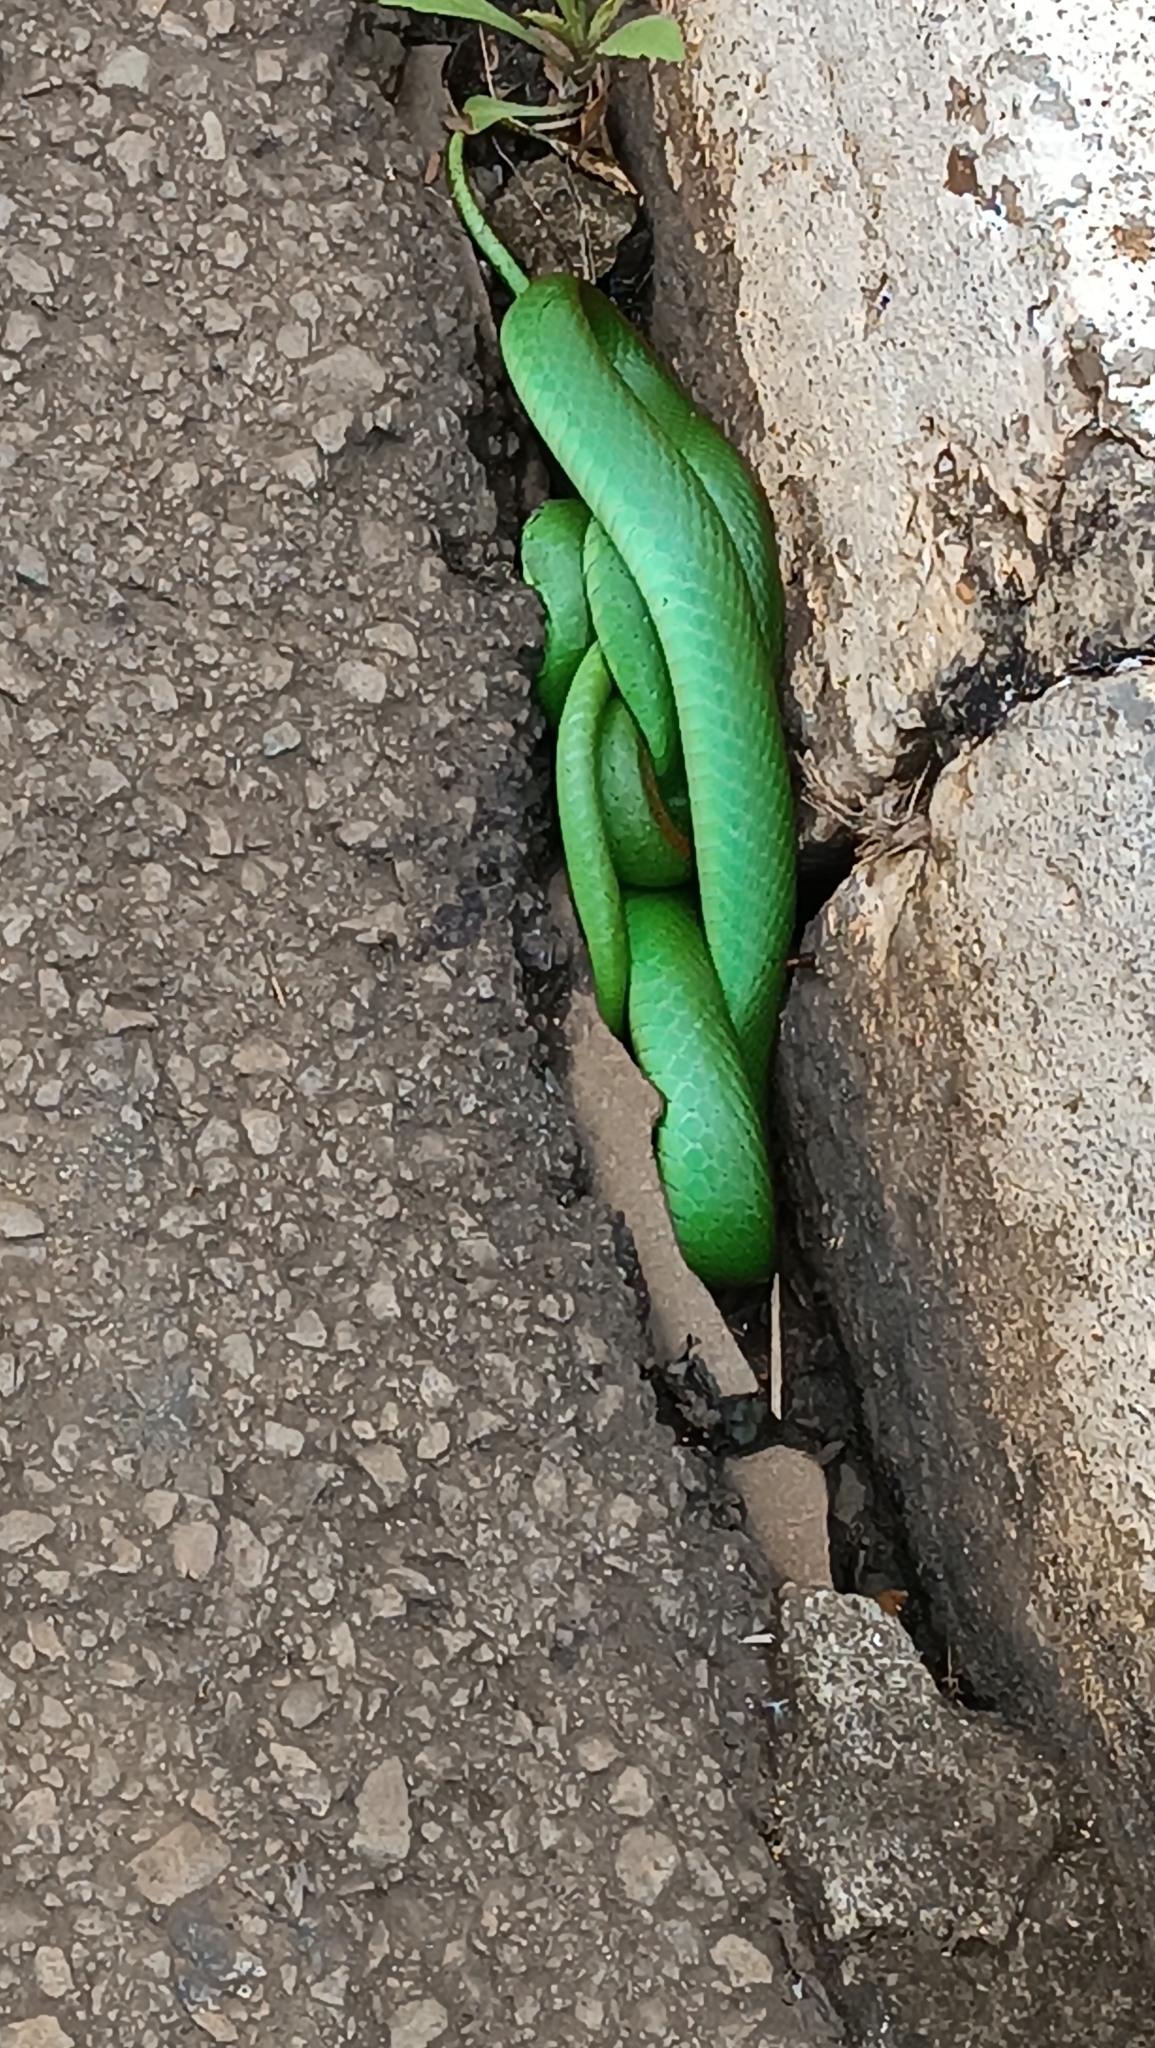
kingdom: Animalia
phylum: Chordata
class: Squamata
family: Colubridae
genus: Philodryas
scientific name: Philodryas olfersii
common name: Lichtenstein's green racer
